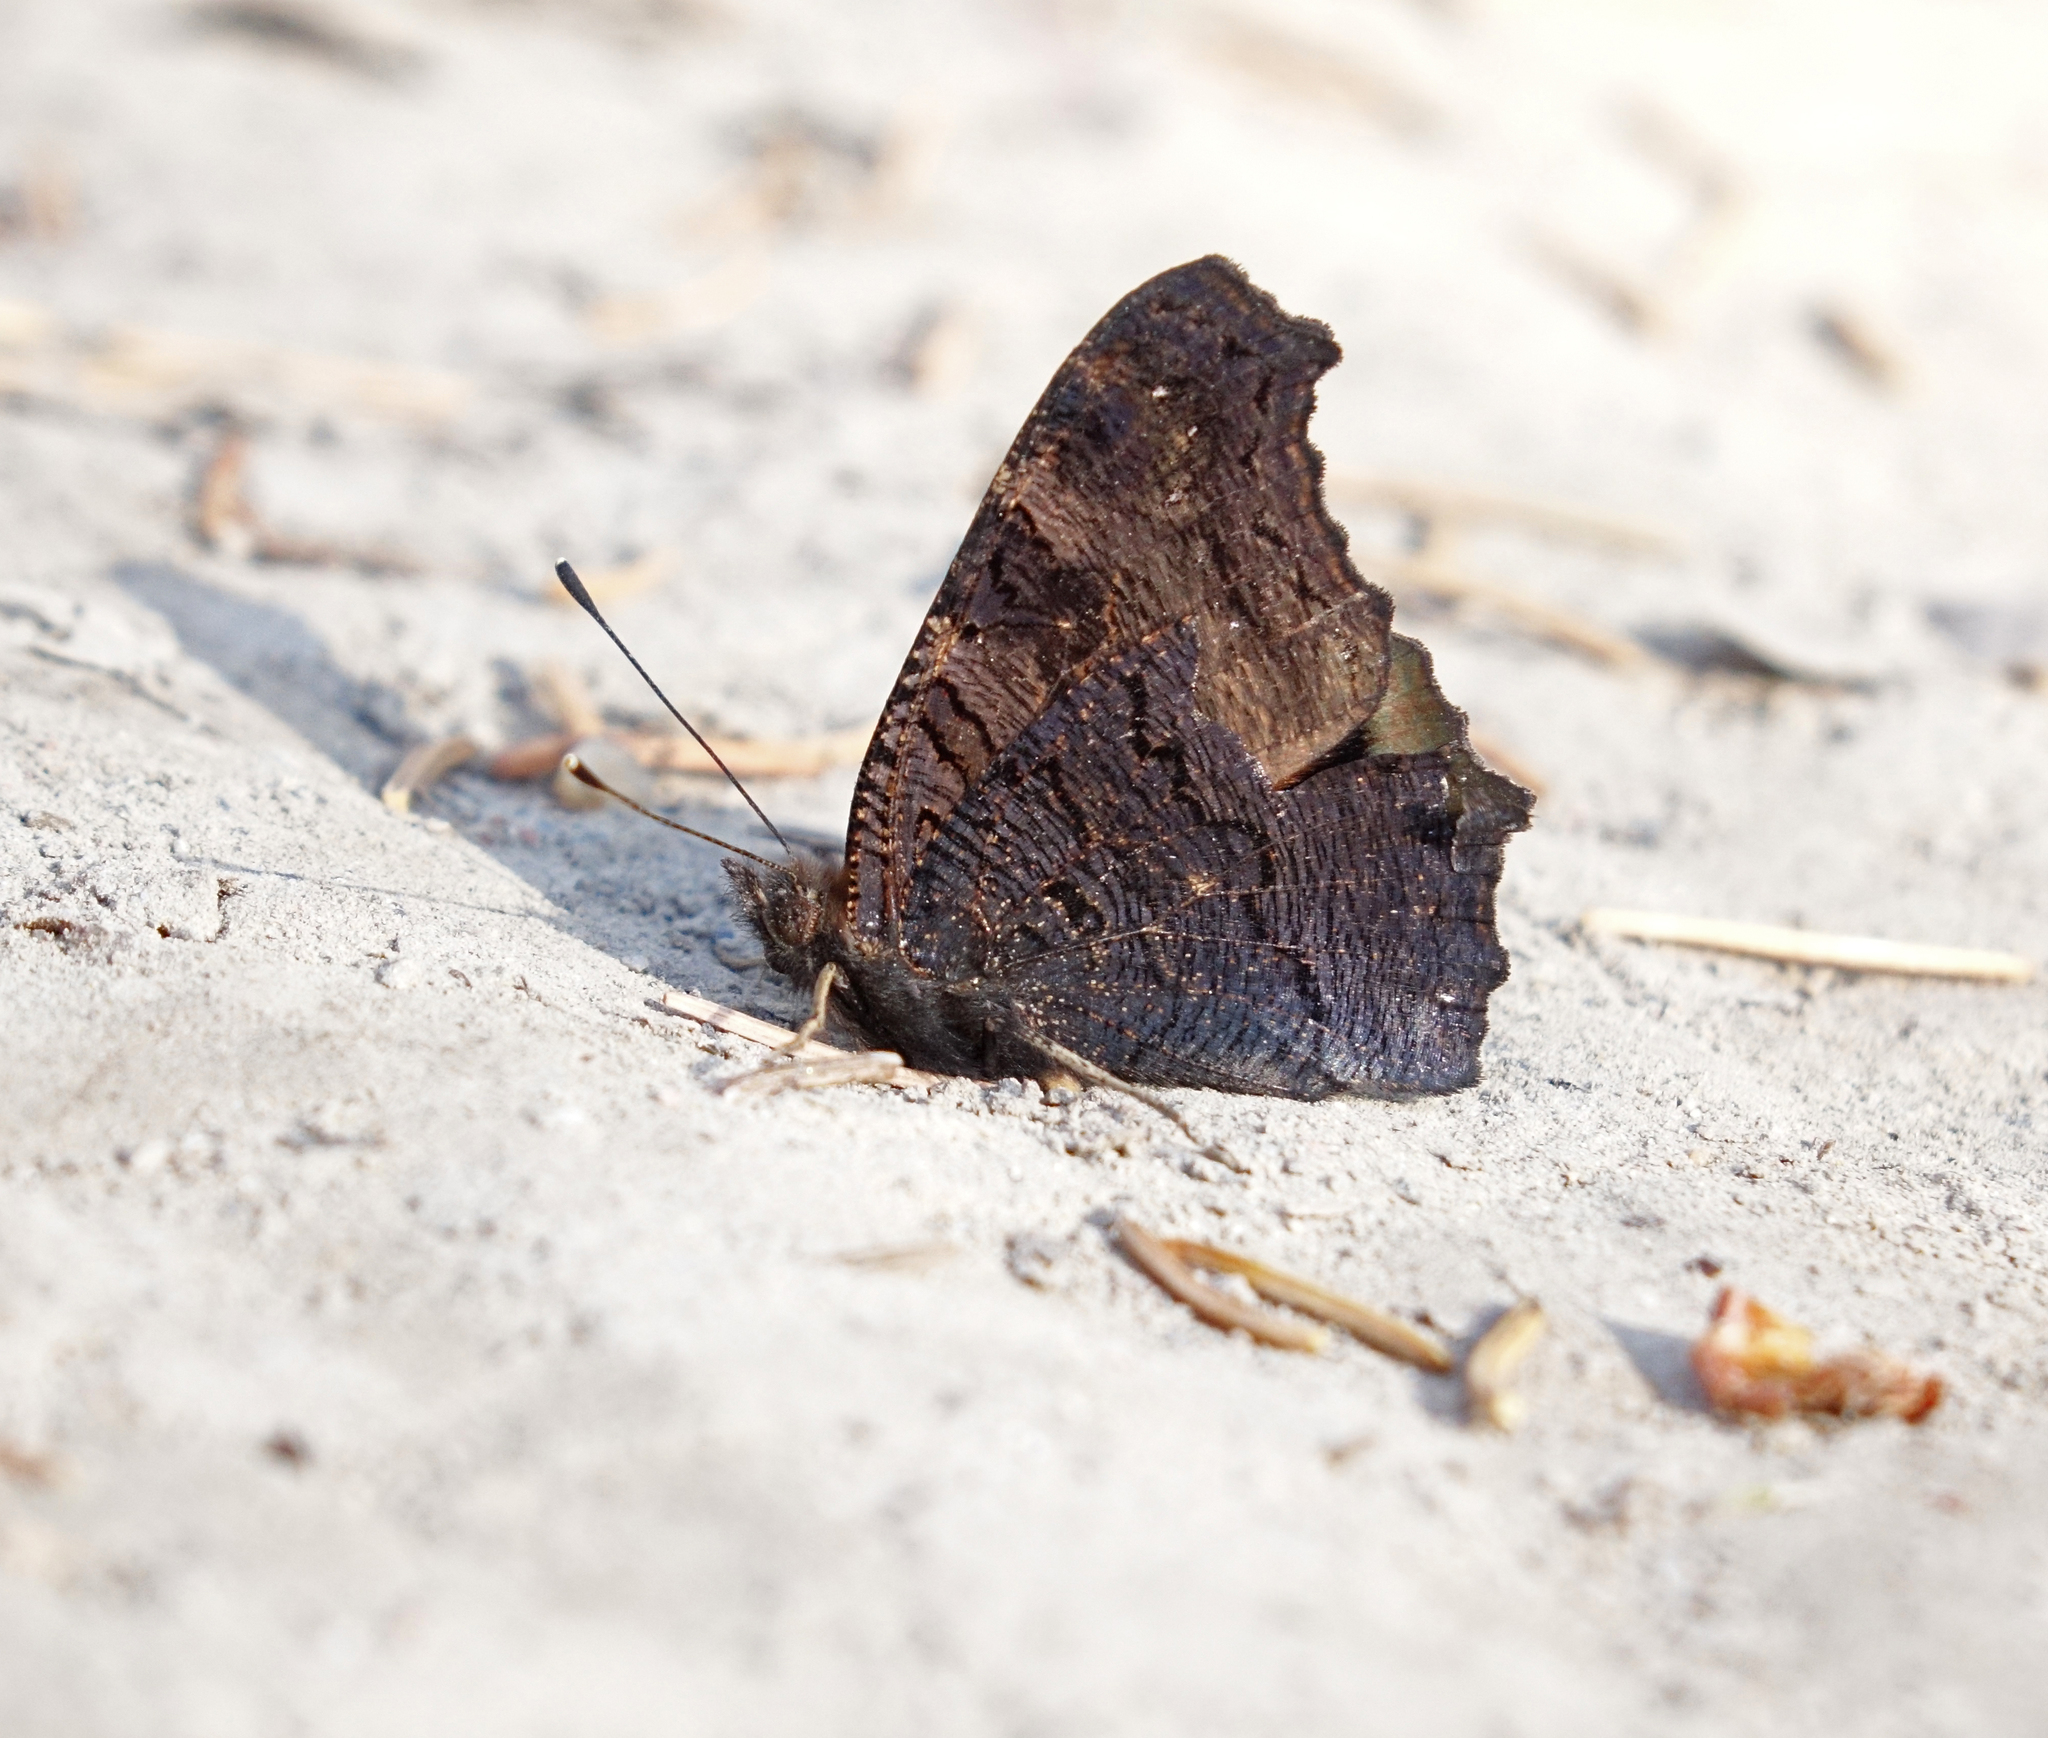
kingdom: Animalia
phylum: Arthropoda
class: Insecta
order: Lepidoptera
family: Nymphalidae
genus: Aglais
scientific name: Aglais io
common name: Peacock
